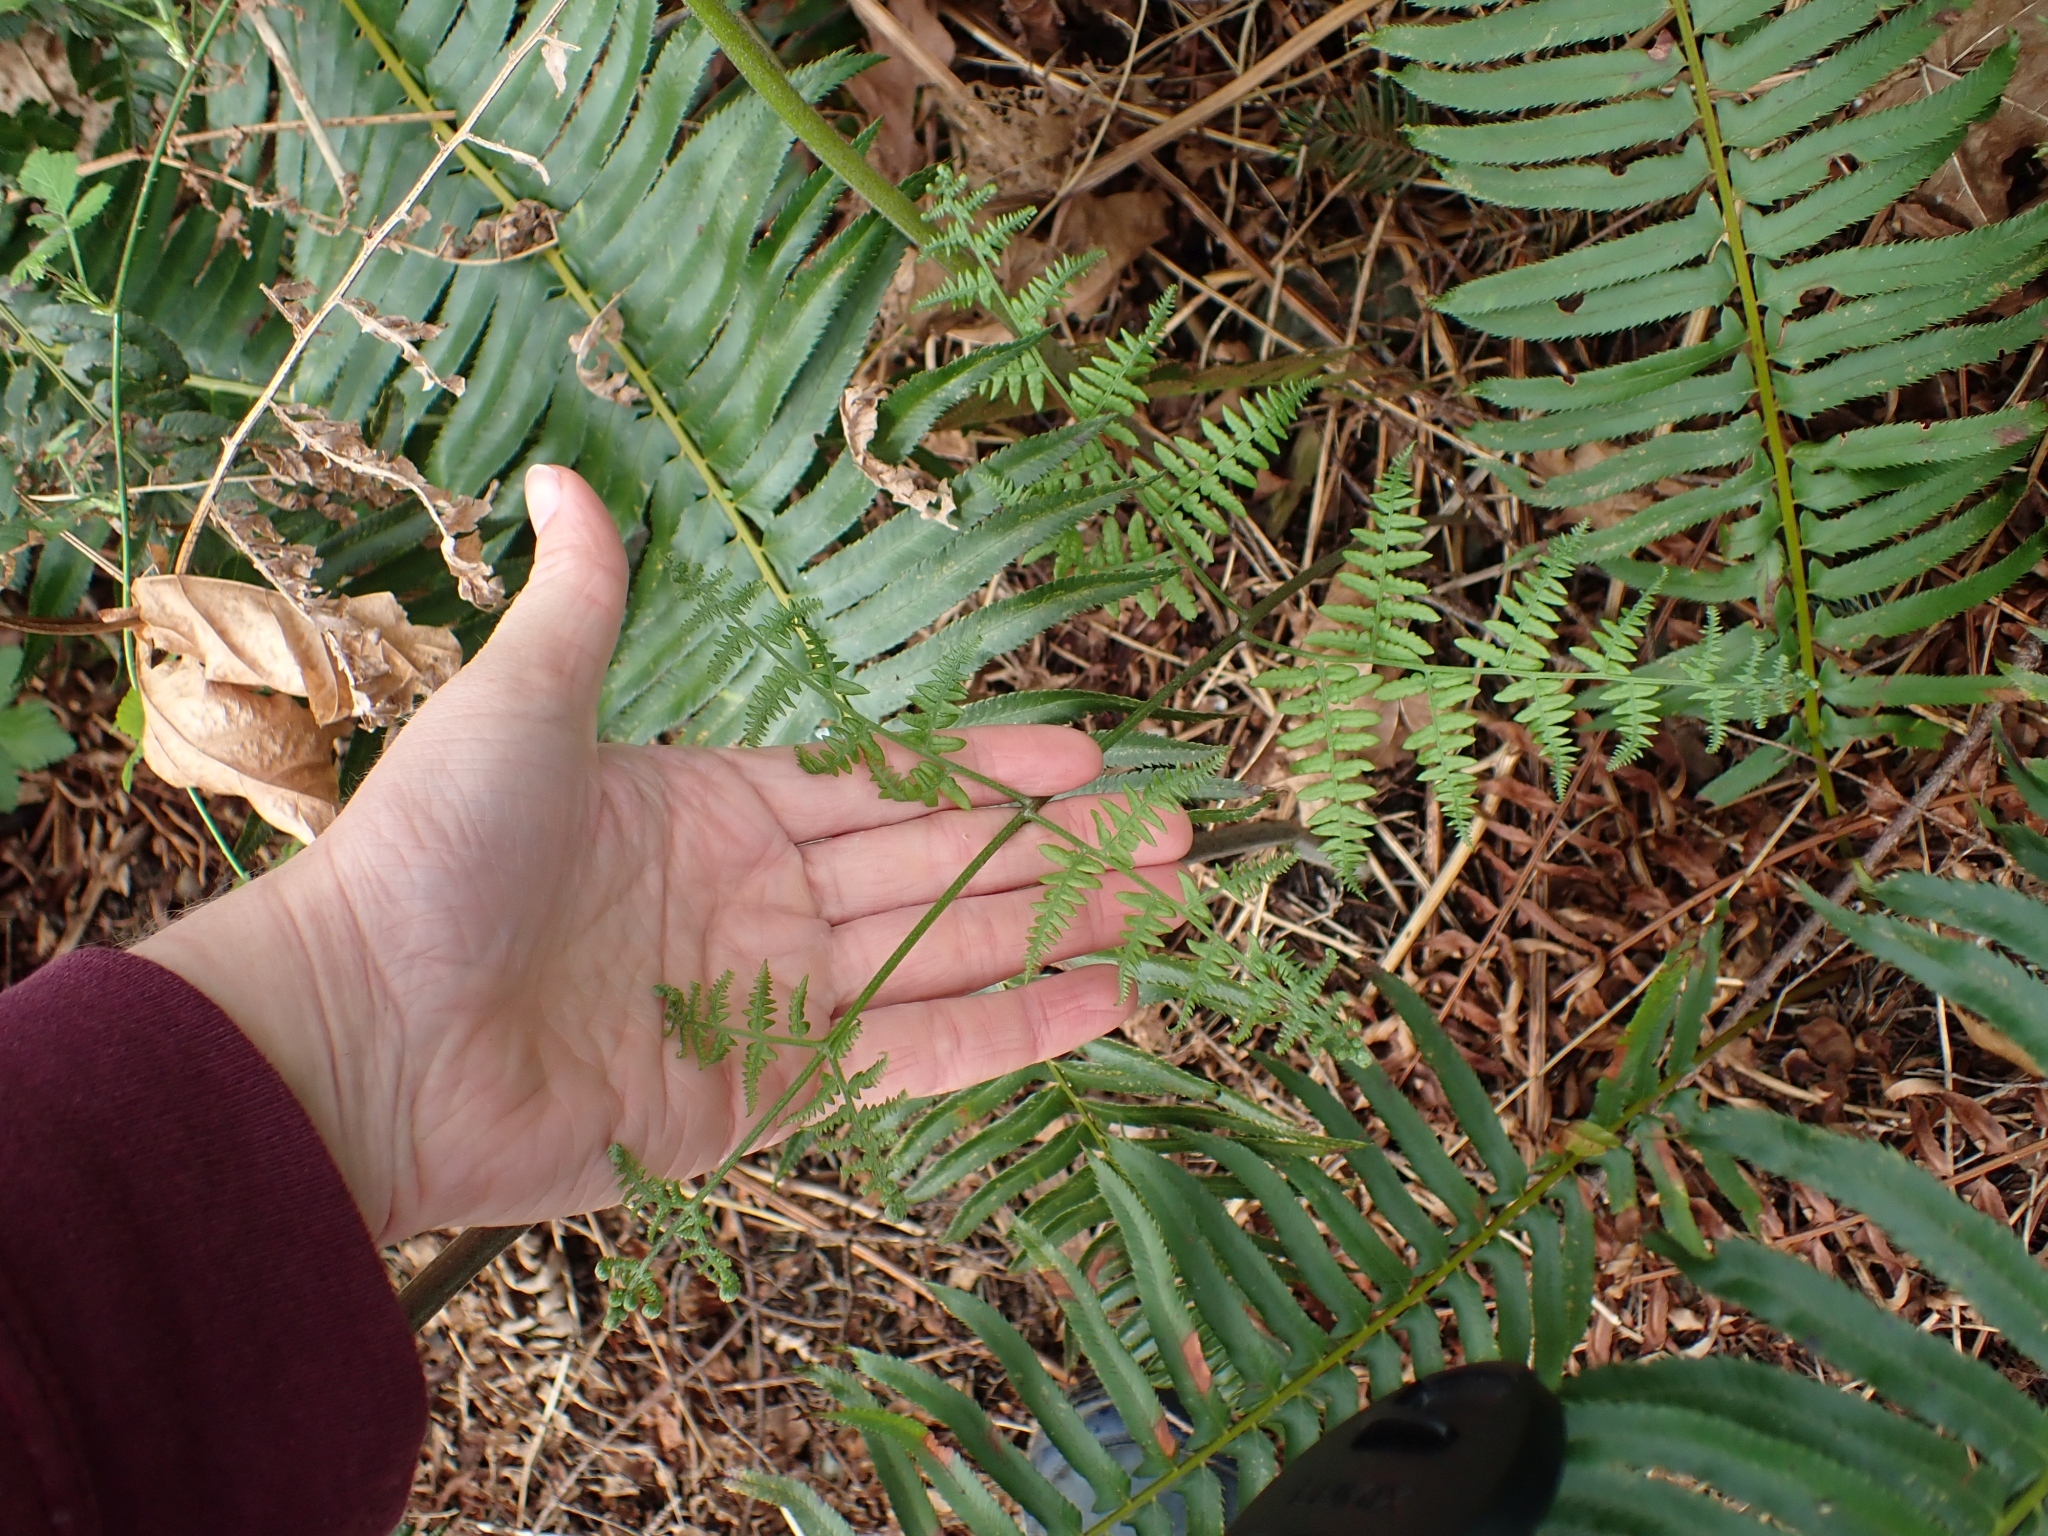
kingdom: Plantae
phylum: Tracheophyta
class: Polypodiopsida
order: Polypodiales
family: Dennstaedtiaceae
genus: Pteridium
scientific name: Pteridium aquilinum
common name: Bracken
